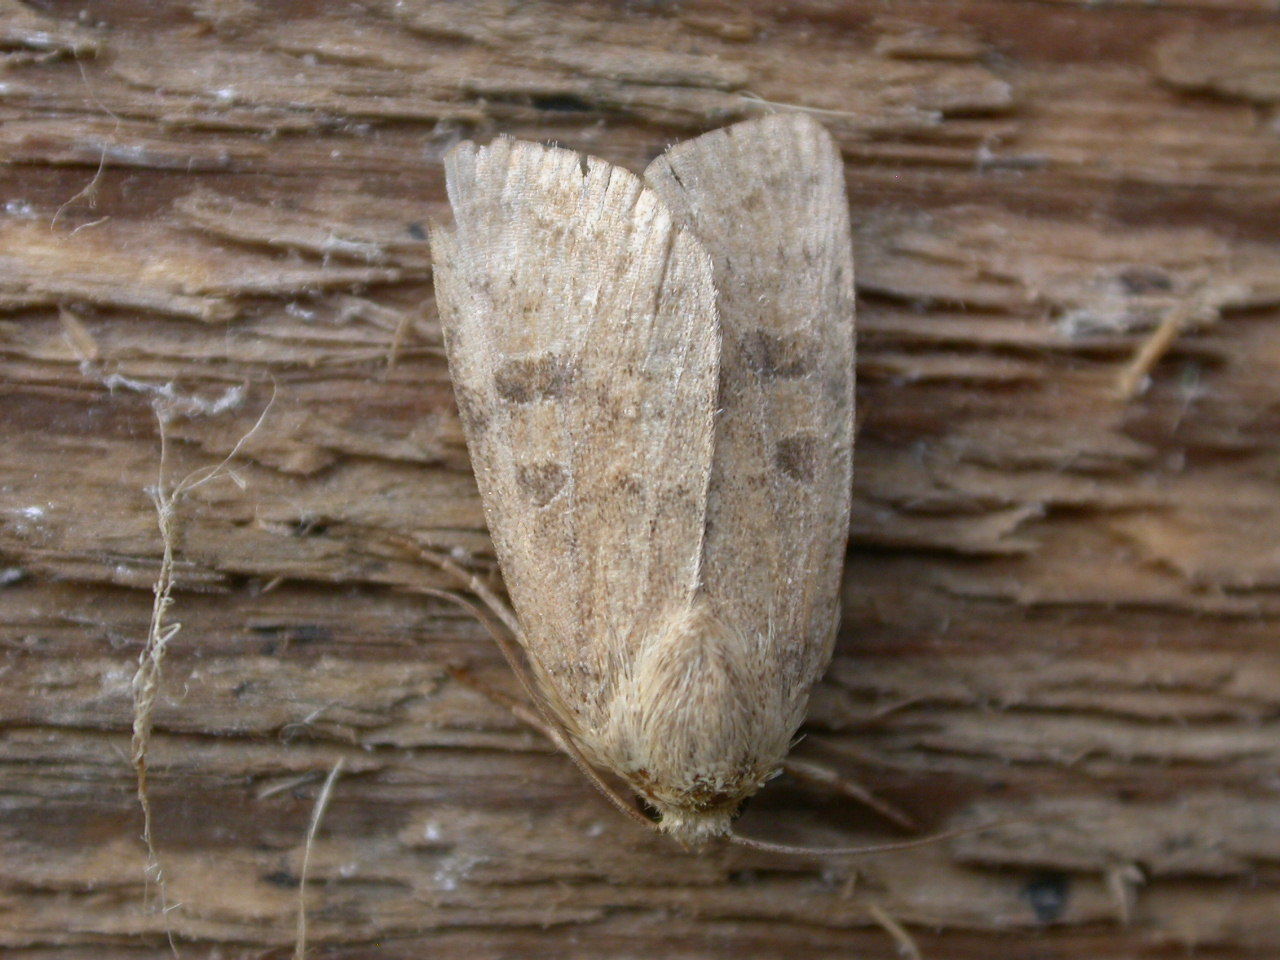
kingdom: Animalia
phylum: Arthropoda
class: Insecta
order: Lepidoptera
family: Noctuidae
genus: Hoplodrina
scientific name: Hoplodrina octogenaria
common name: Uncertain
